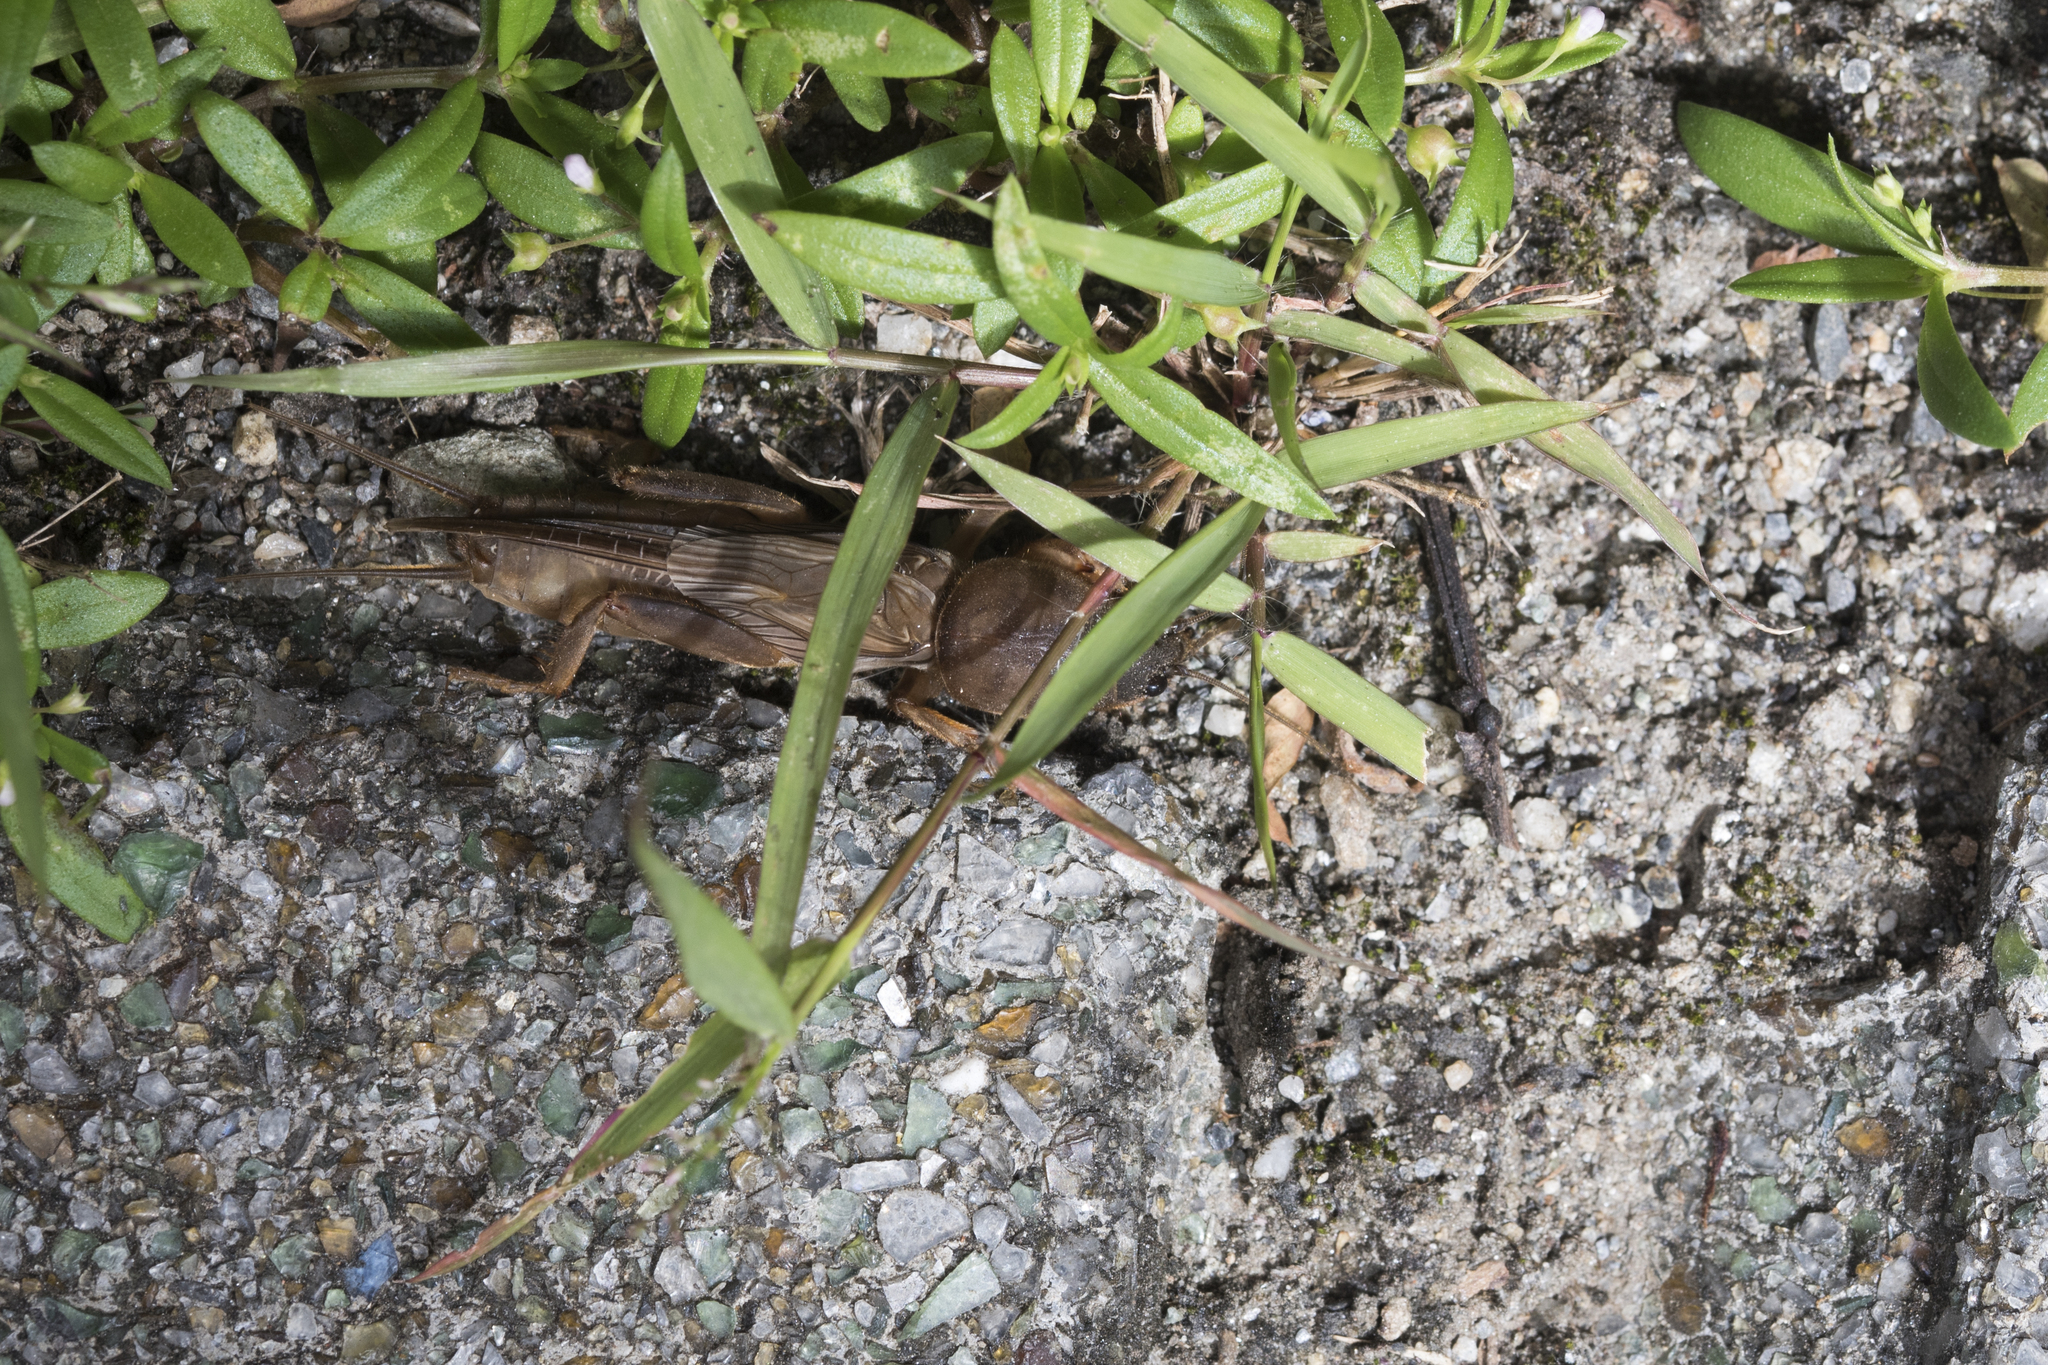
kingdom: Animalia
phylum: Arthropoda
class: Insecta
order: Orthoptera
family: Gryllotalpidae
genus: Gryllotalpa
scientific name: Gryllotalpa orientalis
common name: Grasshopper
